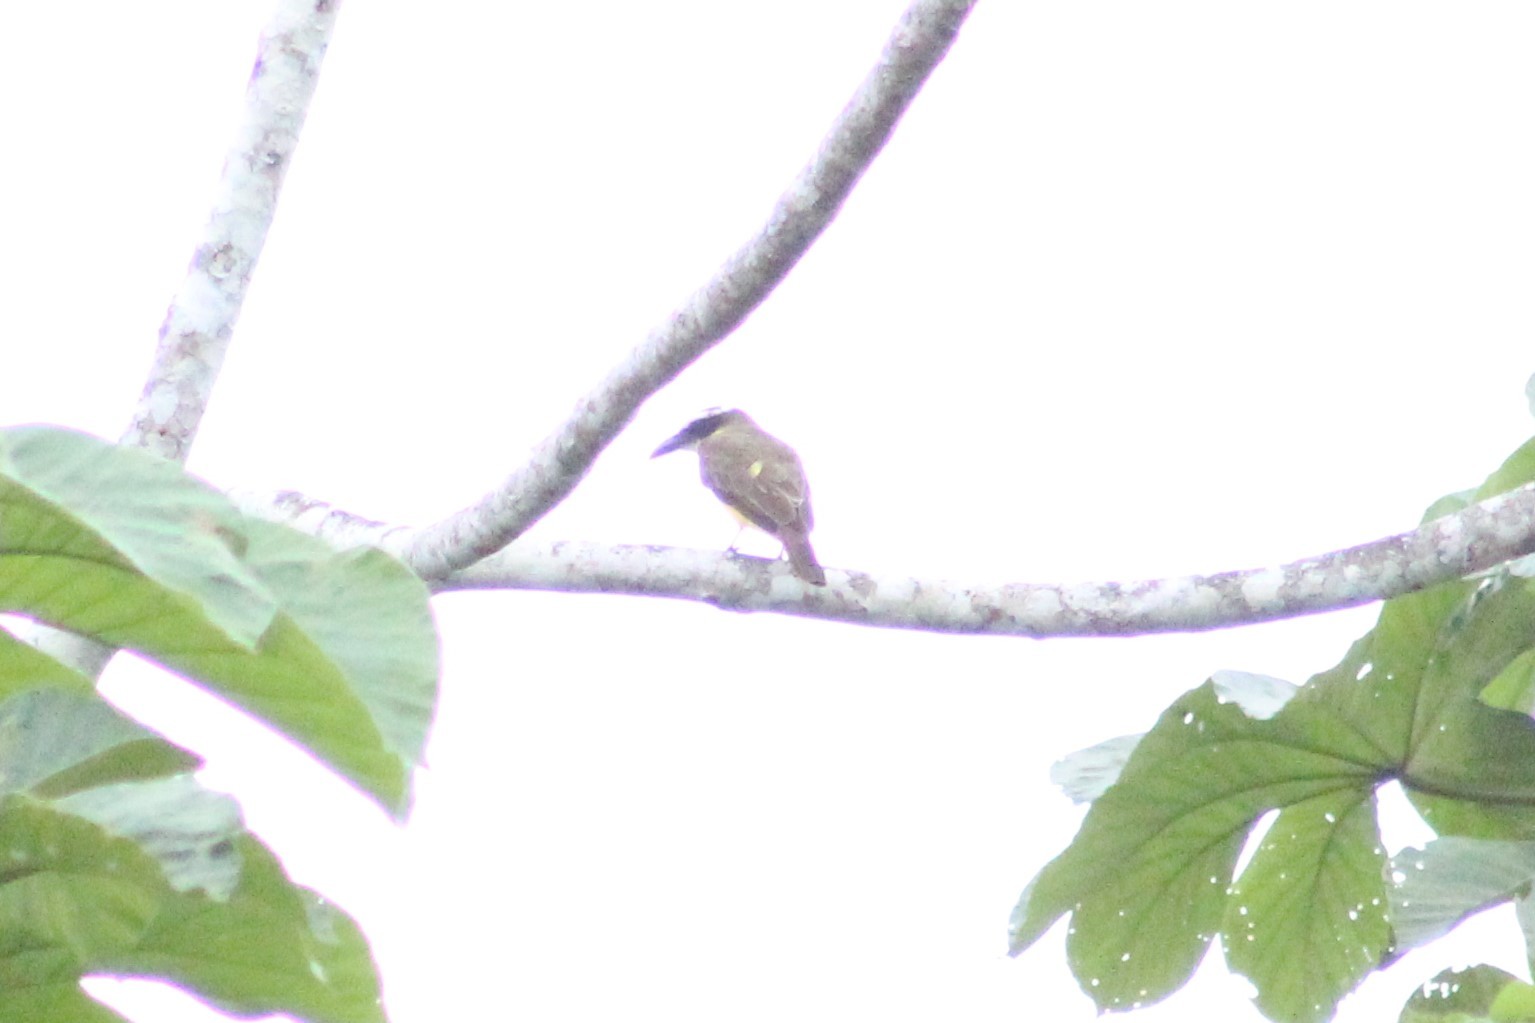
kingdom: Animalia
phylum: Chordata
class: Aves
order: Passeriformes
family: Tyrannidae
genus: Megarynchus
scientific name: Megarynchus pitangua
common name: Boat-billed flycatcher
